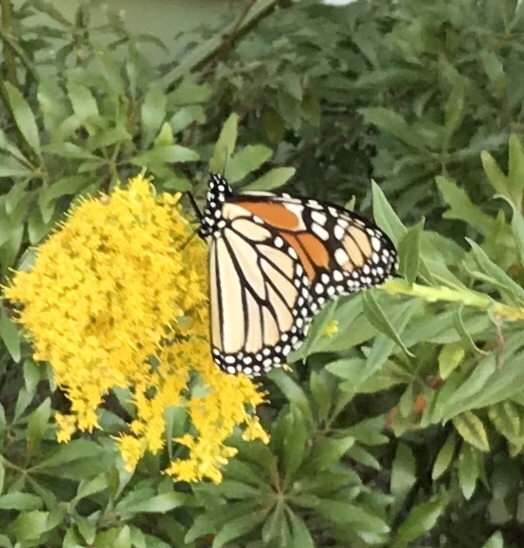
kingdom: Animalia
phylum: Arthropoda
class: Insecta
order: Lepidoptera
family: Nymphalidae
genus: Danaus
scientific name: Danaus plexippus
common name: Monarch
